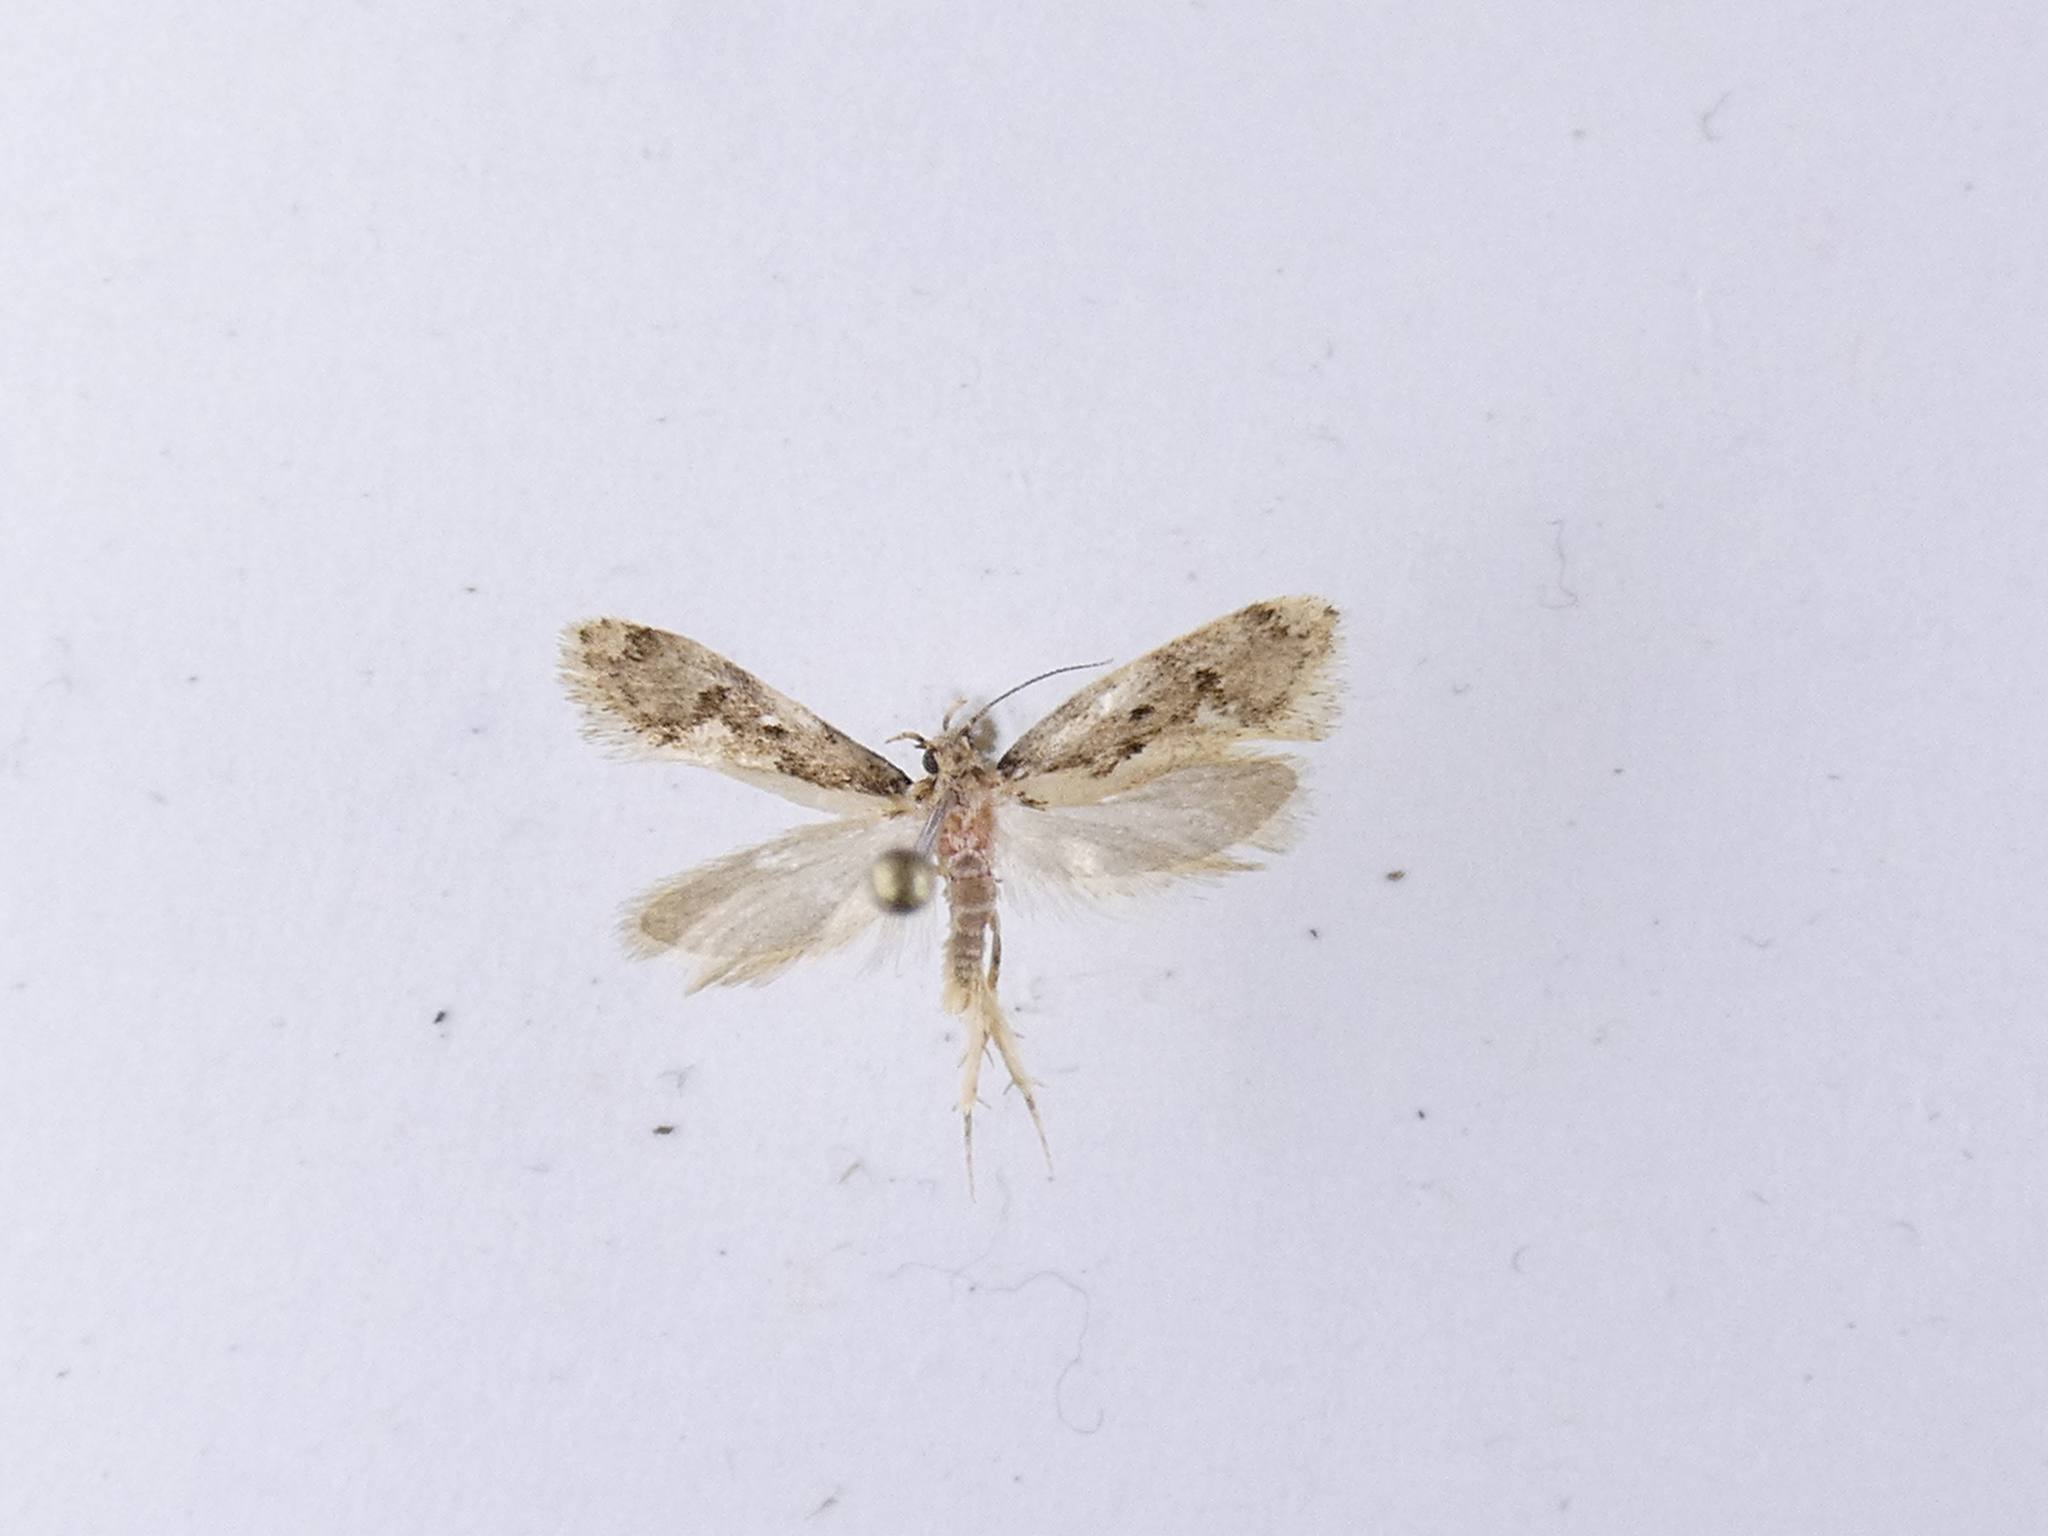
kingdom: Animalia
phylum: Arthropoda
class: Insecta
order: Lepidoptera
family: Oecophoridae
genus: Tingena
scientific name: Tingena ancogramma
